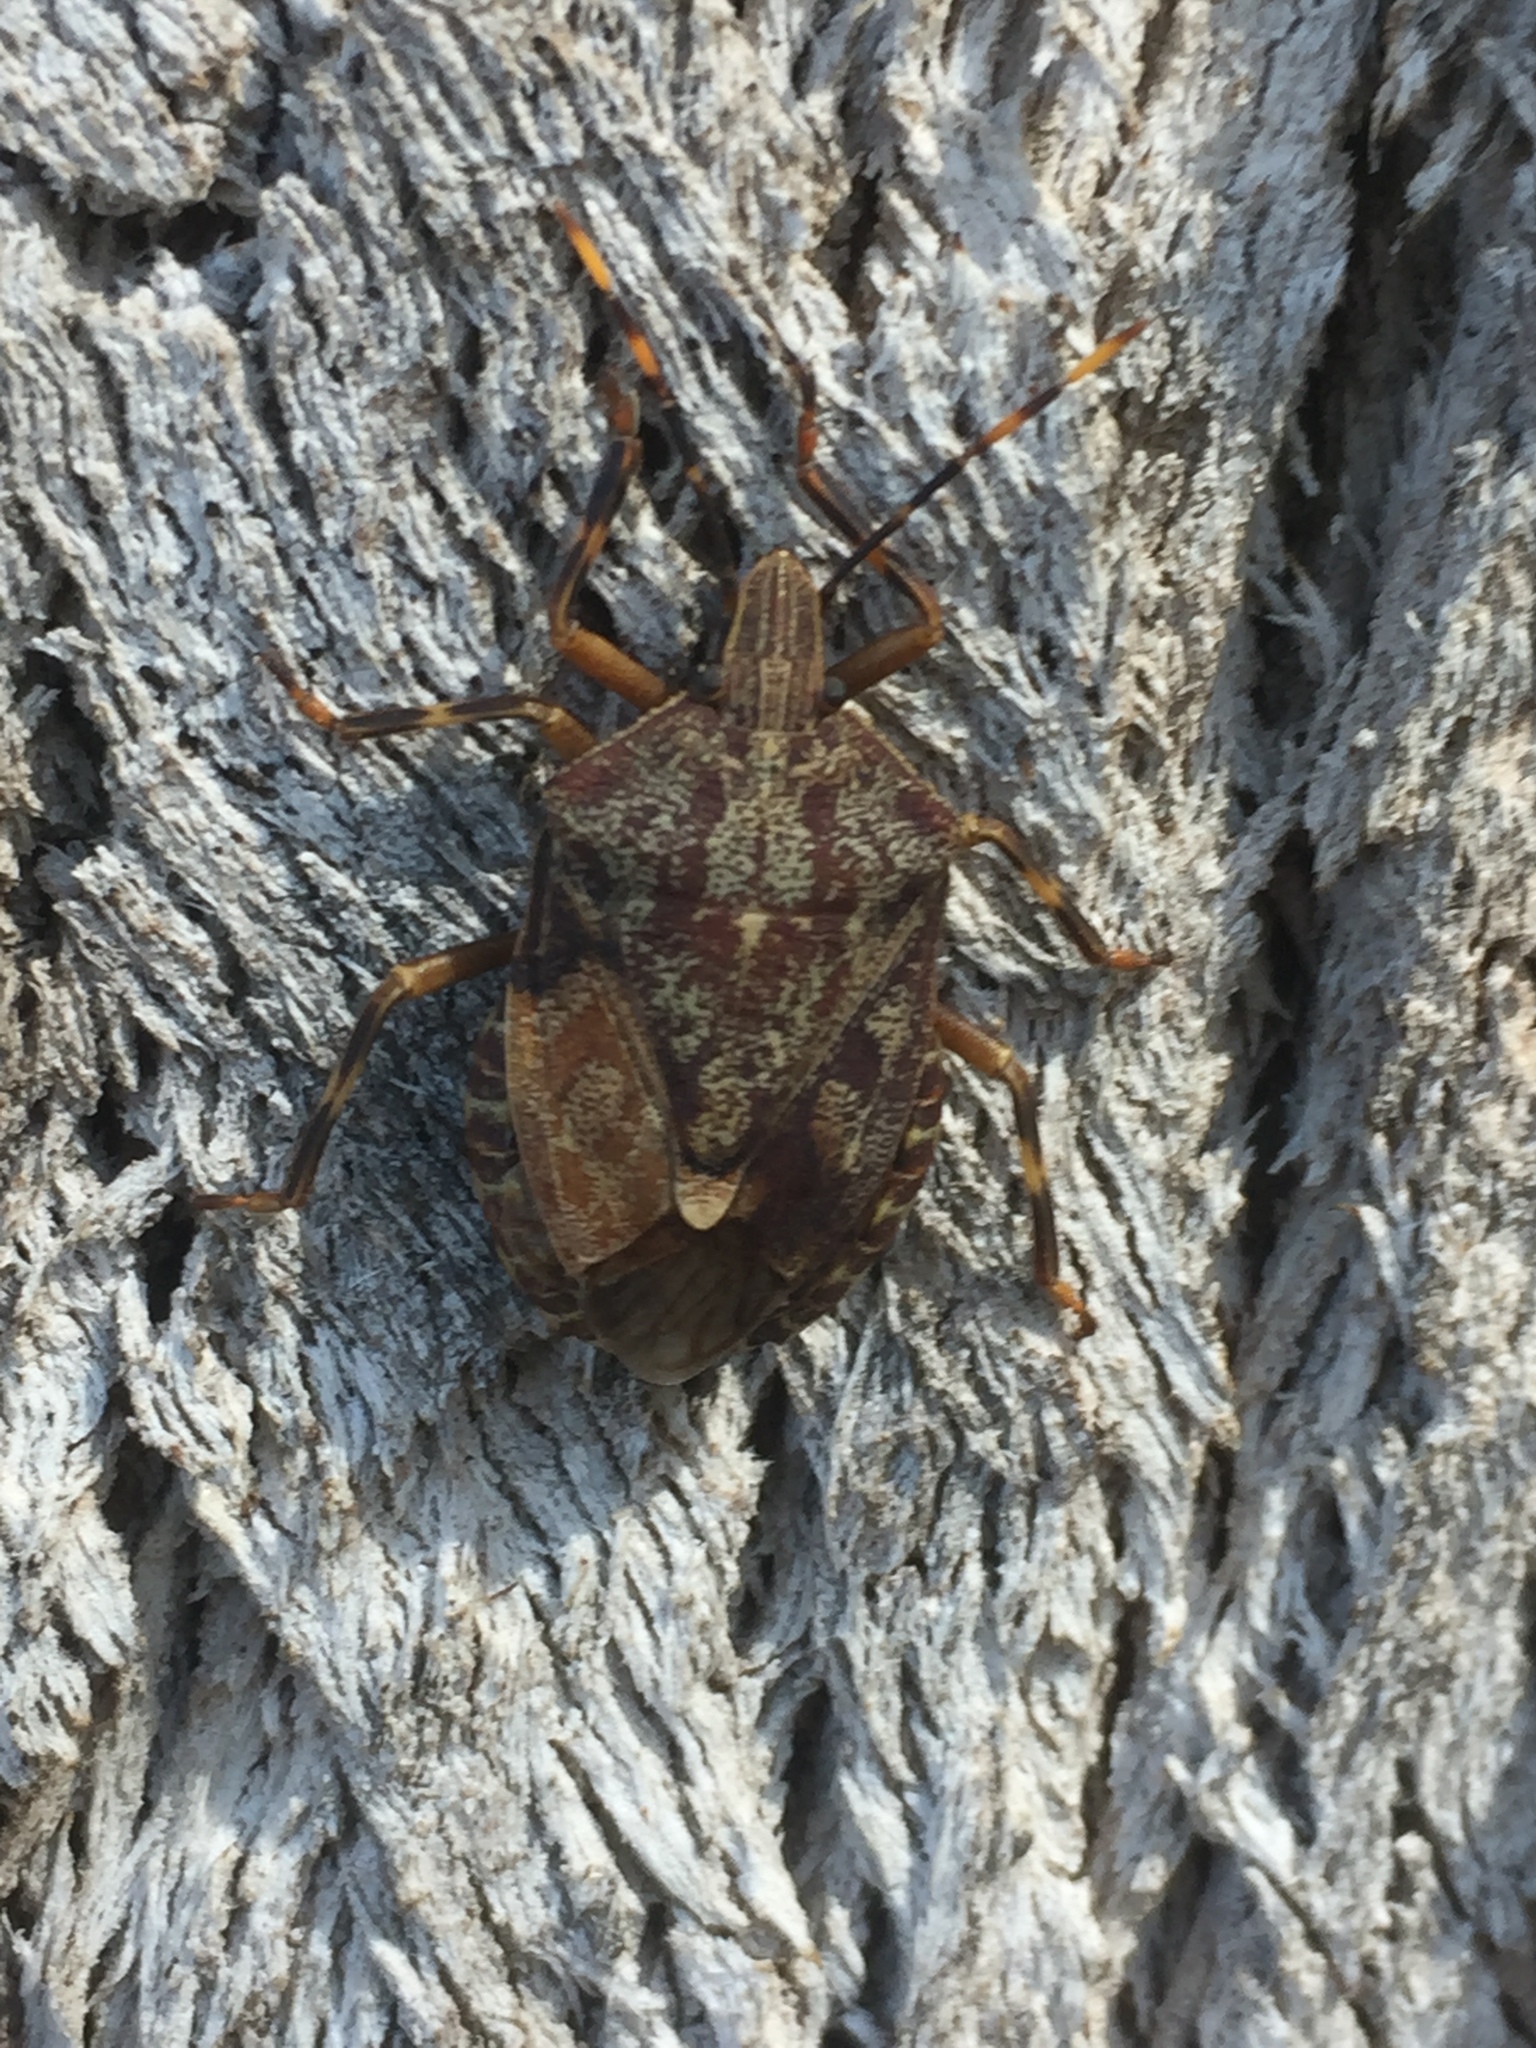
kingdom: Animalia
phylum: Arthropoda
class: Insecta
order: Hemiptera
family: Pentatomidae
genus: Coenomorpha
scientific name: Coenomorpha nervosa
